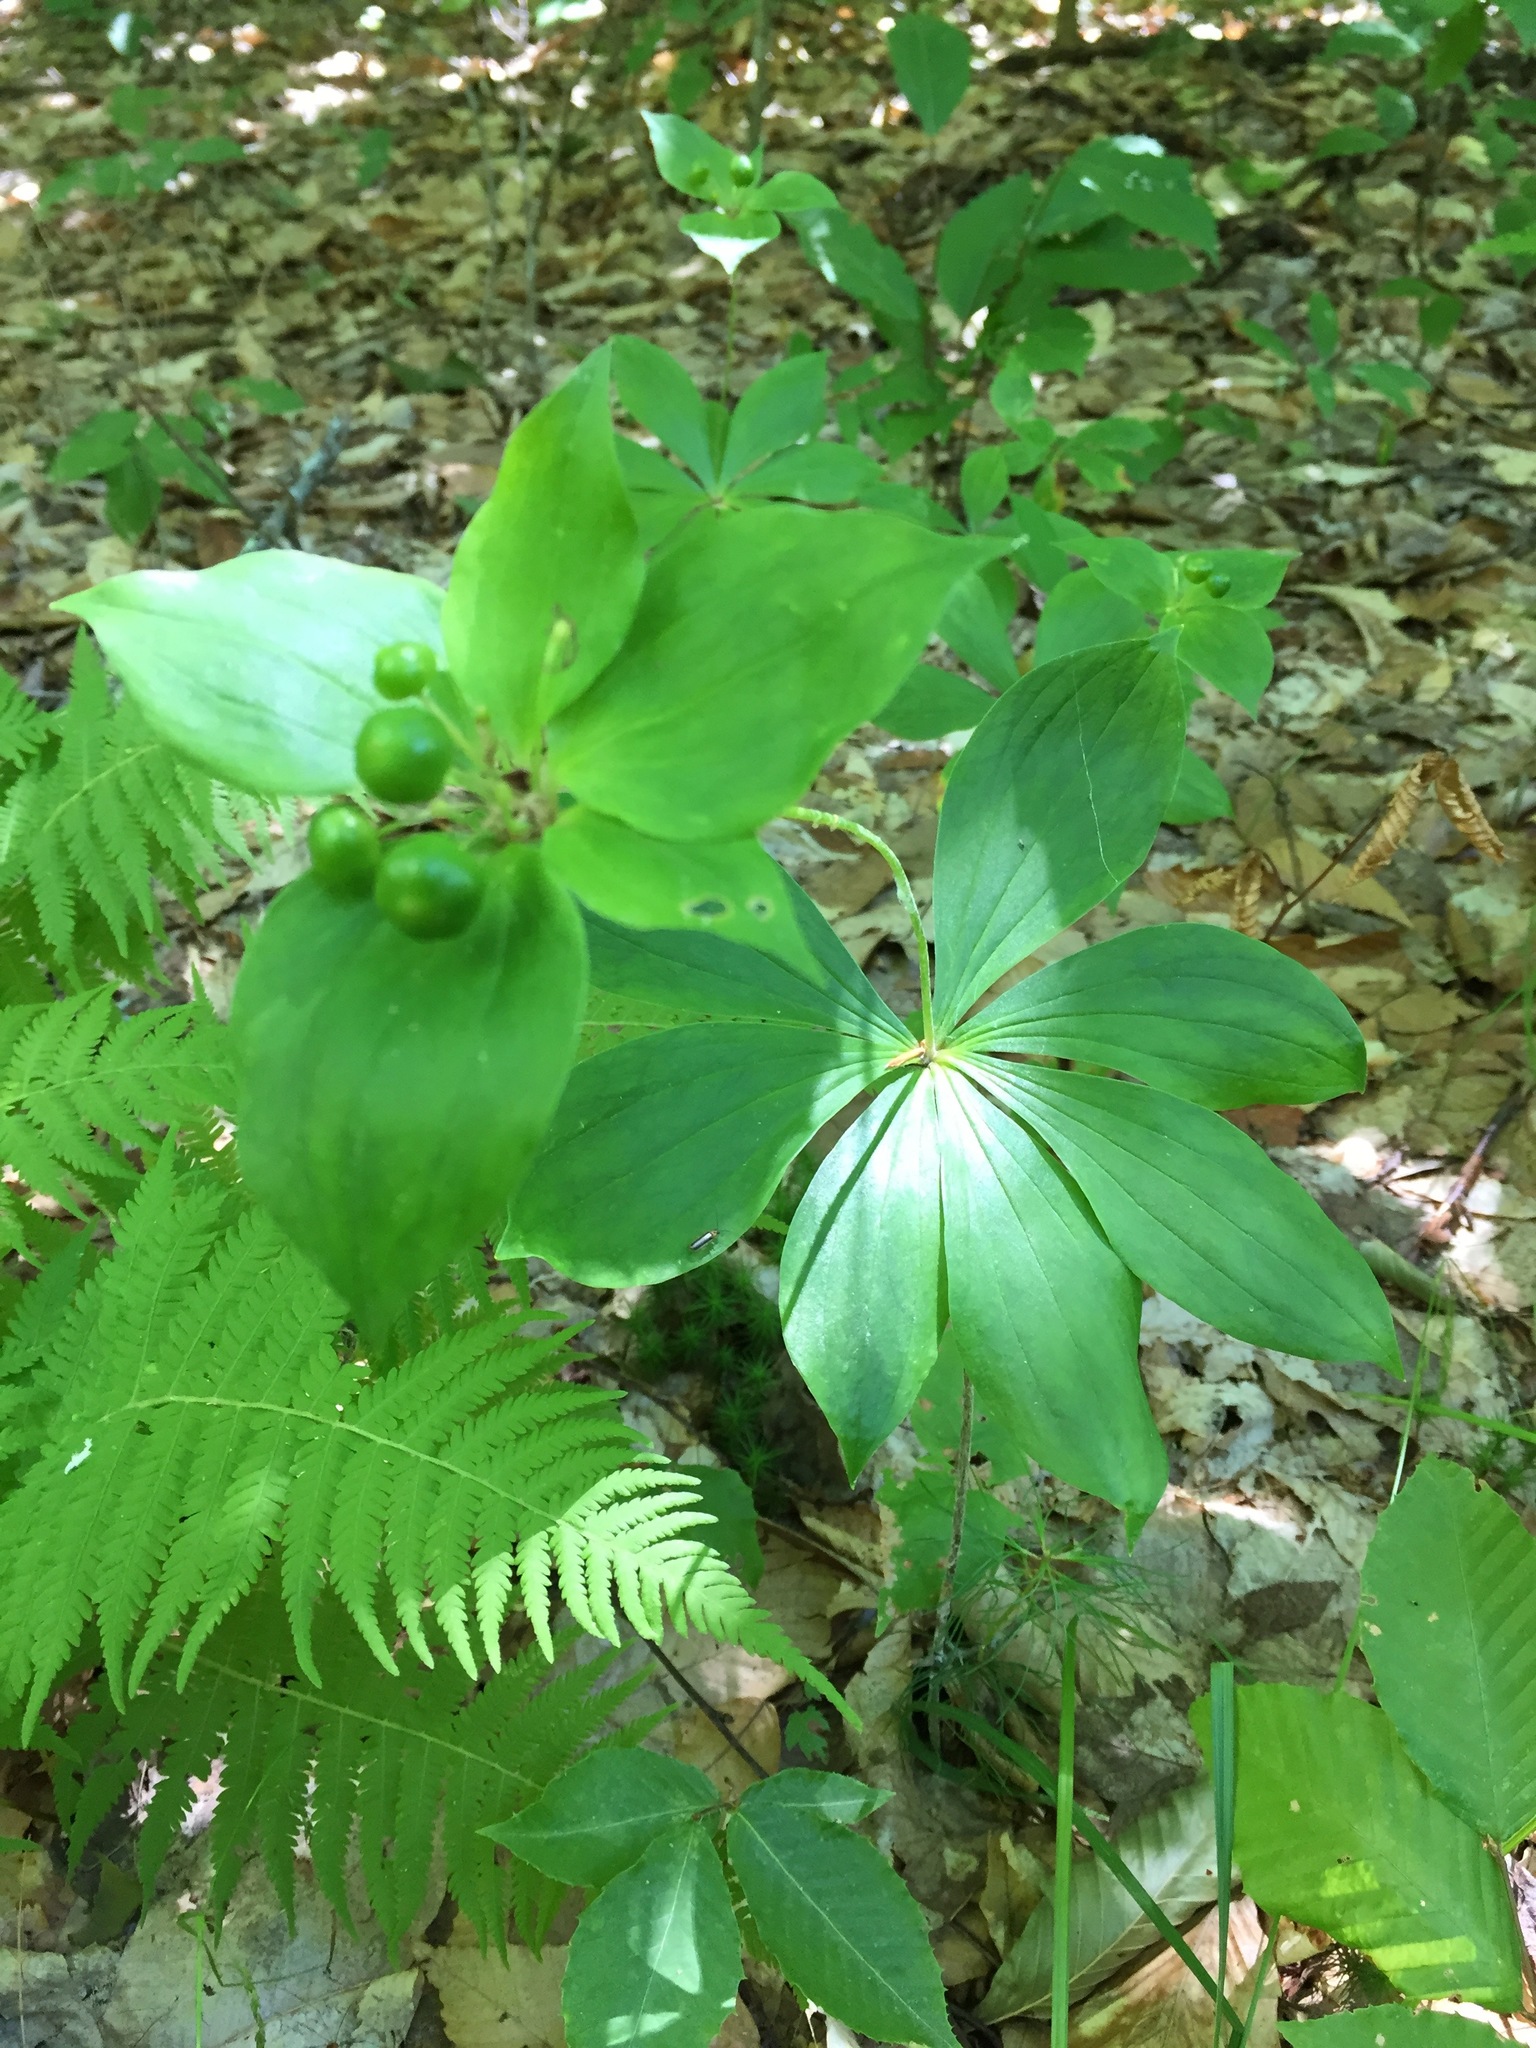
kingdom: Plantae
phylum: Tracheophyta
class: Liliopsida
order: Liliales
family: Liliaceae
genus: Medeola
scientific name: Medeola virginiana
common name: Indian cucumber-root
